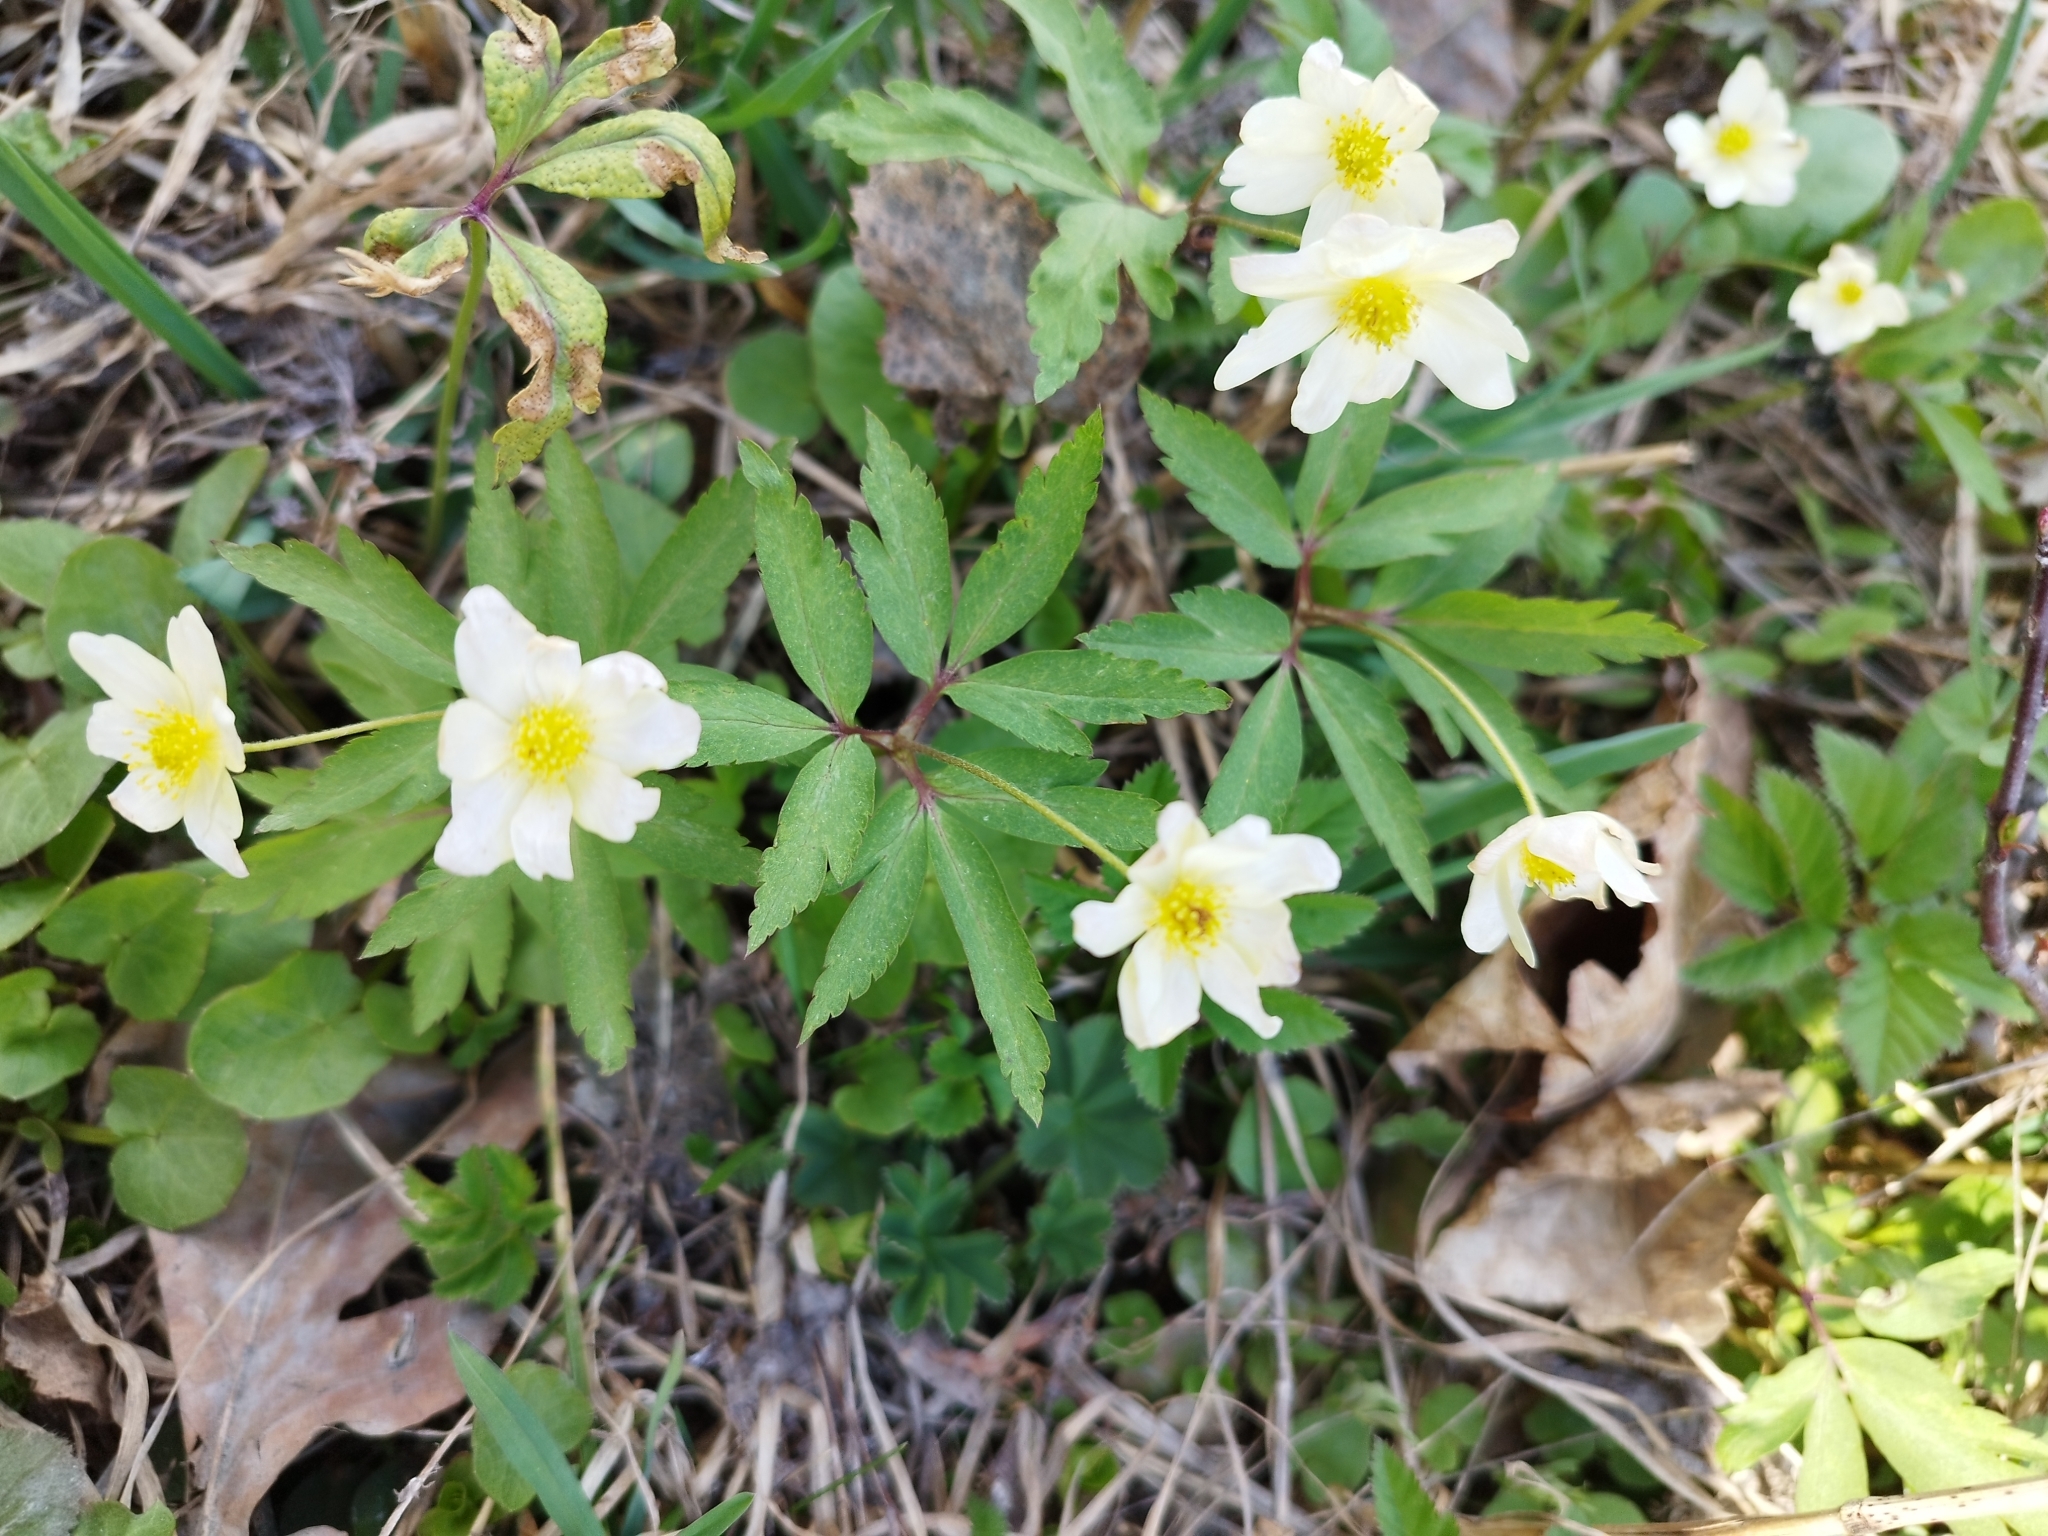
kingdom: Plantae
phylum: Tracheophyta
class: Magnoliopsida
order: Ranunculales
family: Ranunculaceae
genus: Anemone
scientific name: Anemone korzchinskyi
